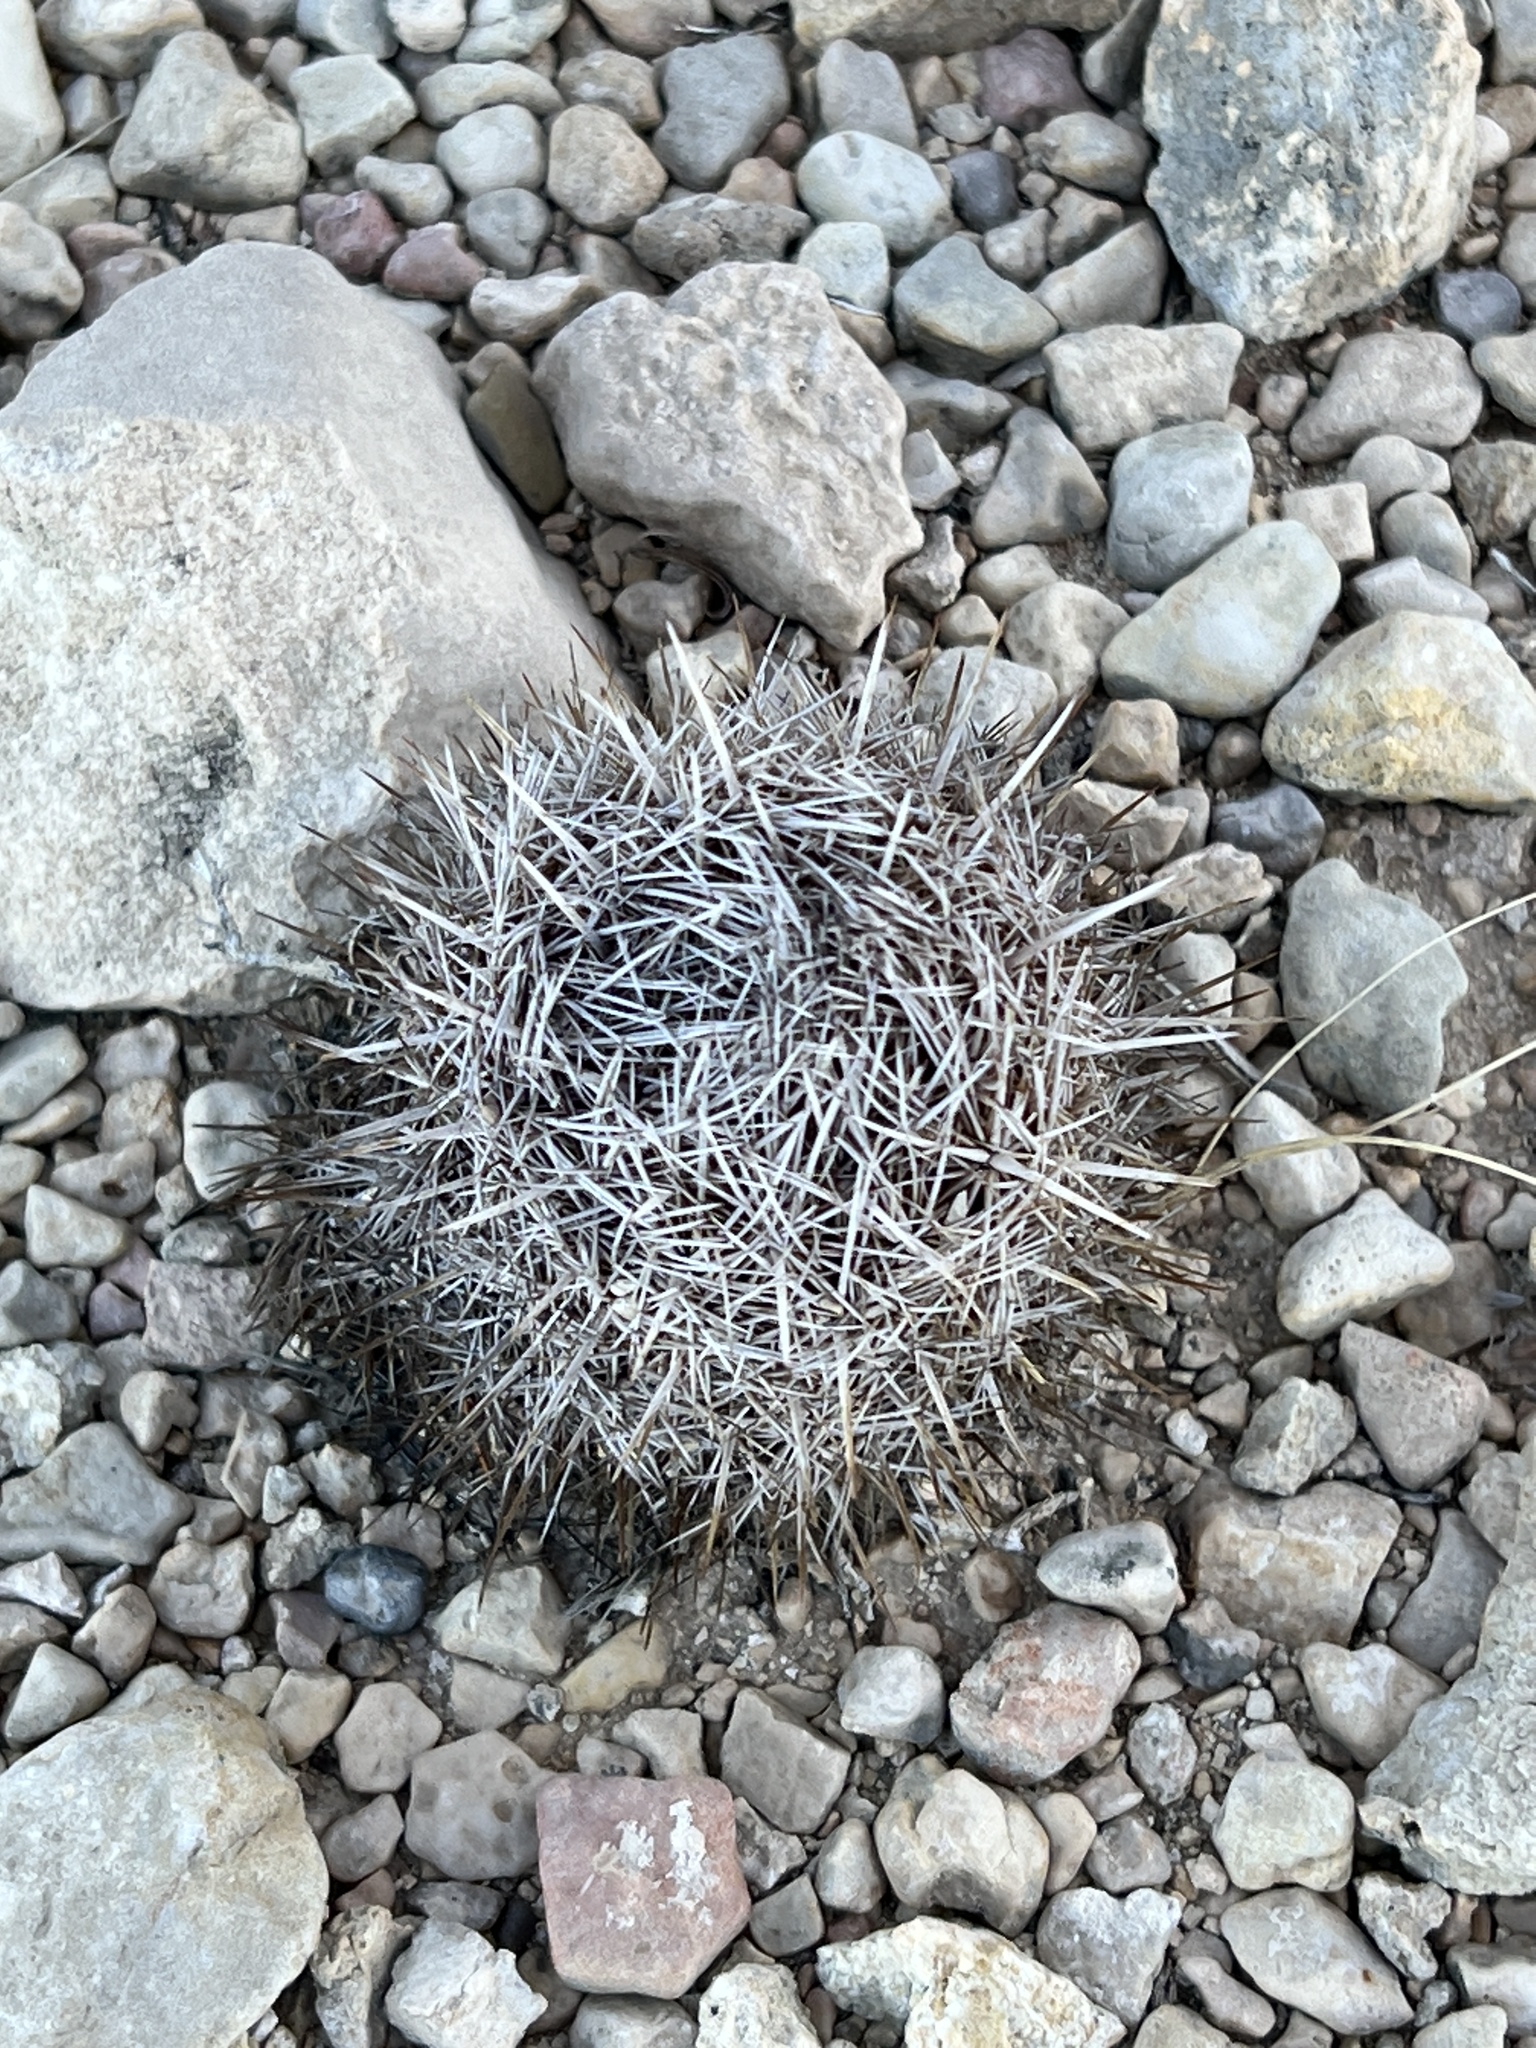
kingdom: Plantae
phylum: Tracheophyta
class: Magnoliopsida
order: Caryophyllales
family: Cactaceae
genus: Coryphantha
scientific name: Coryphantha echinus
